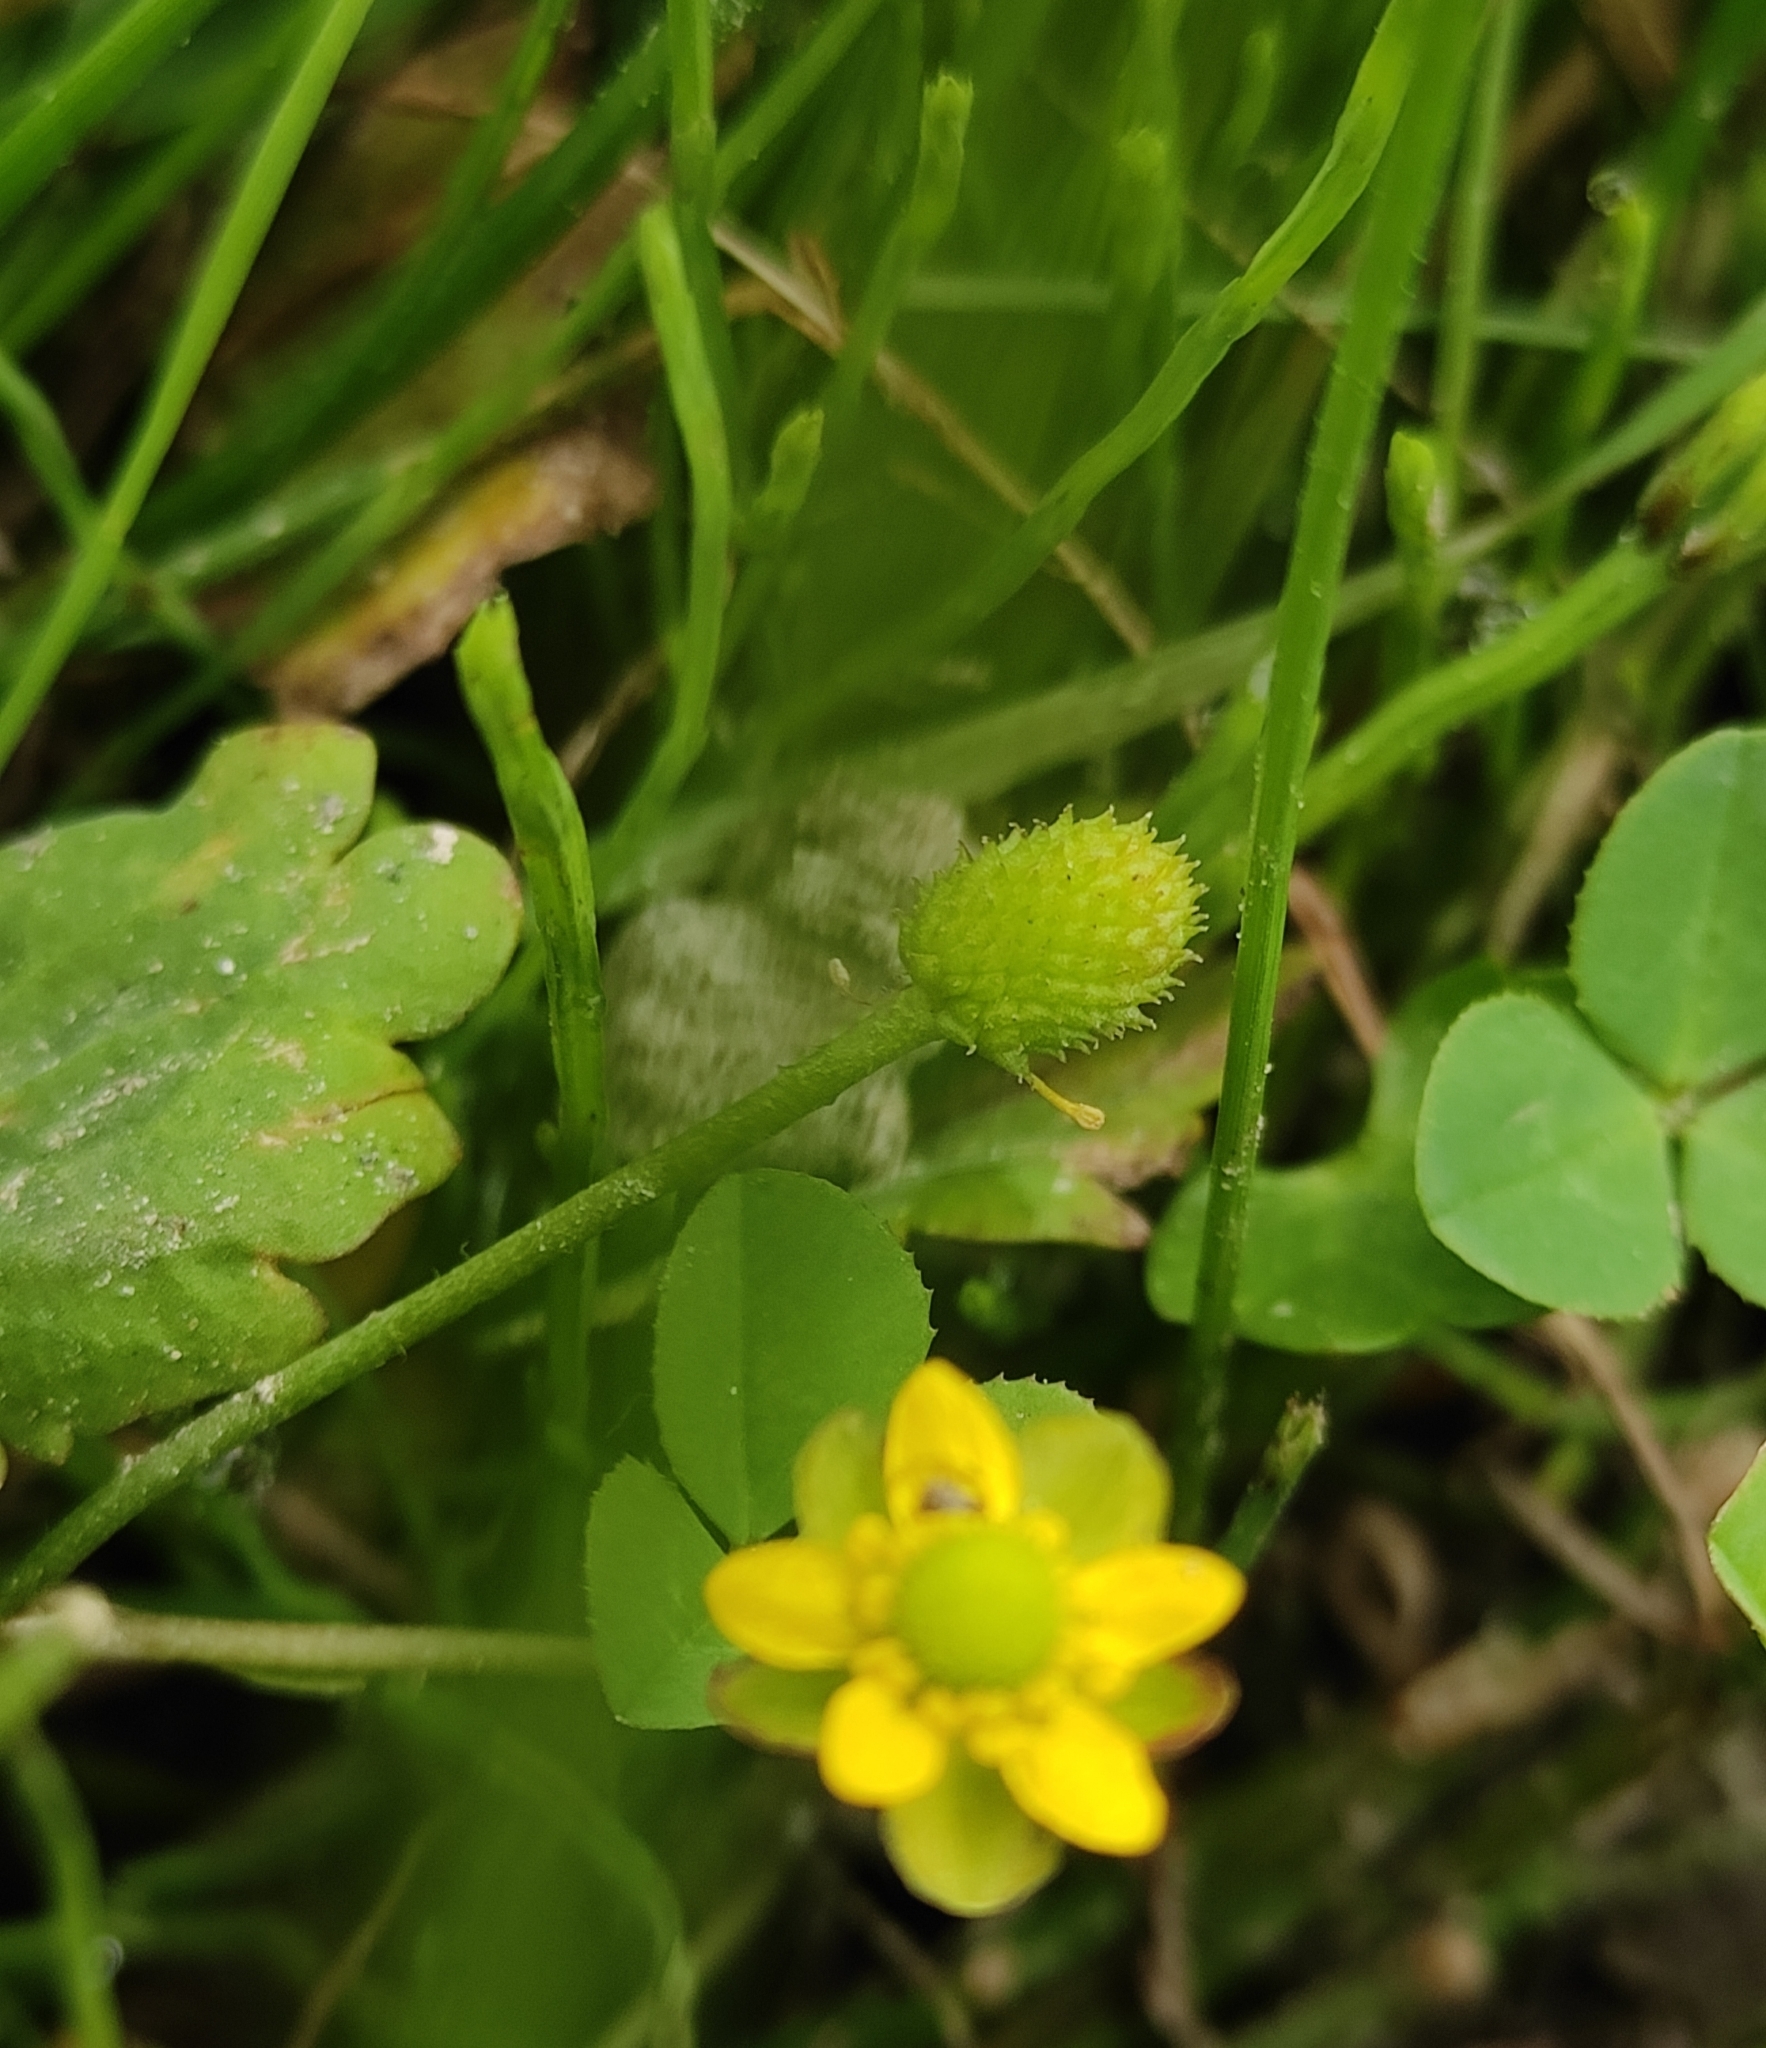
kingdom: Plantae
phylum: Tracheophyta
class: Magnoliopsida
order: Ranunculales
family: Ranunculaceae
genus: Halerpestes
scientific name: Halerpestes sarmentosus
